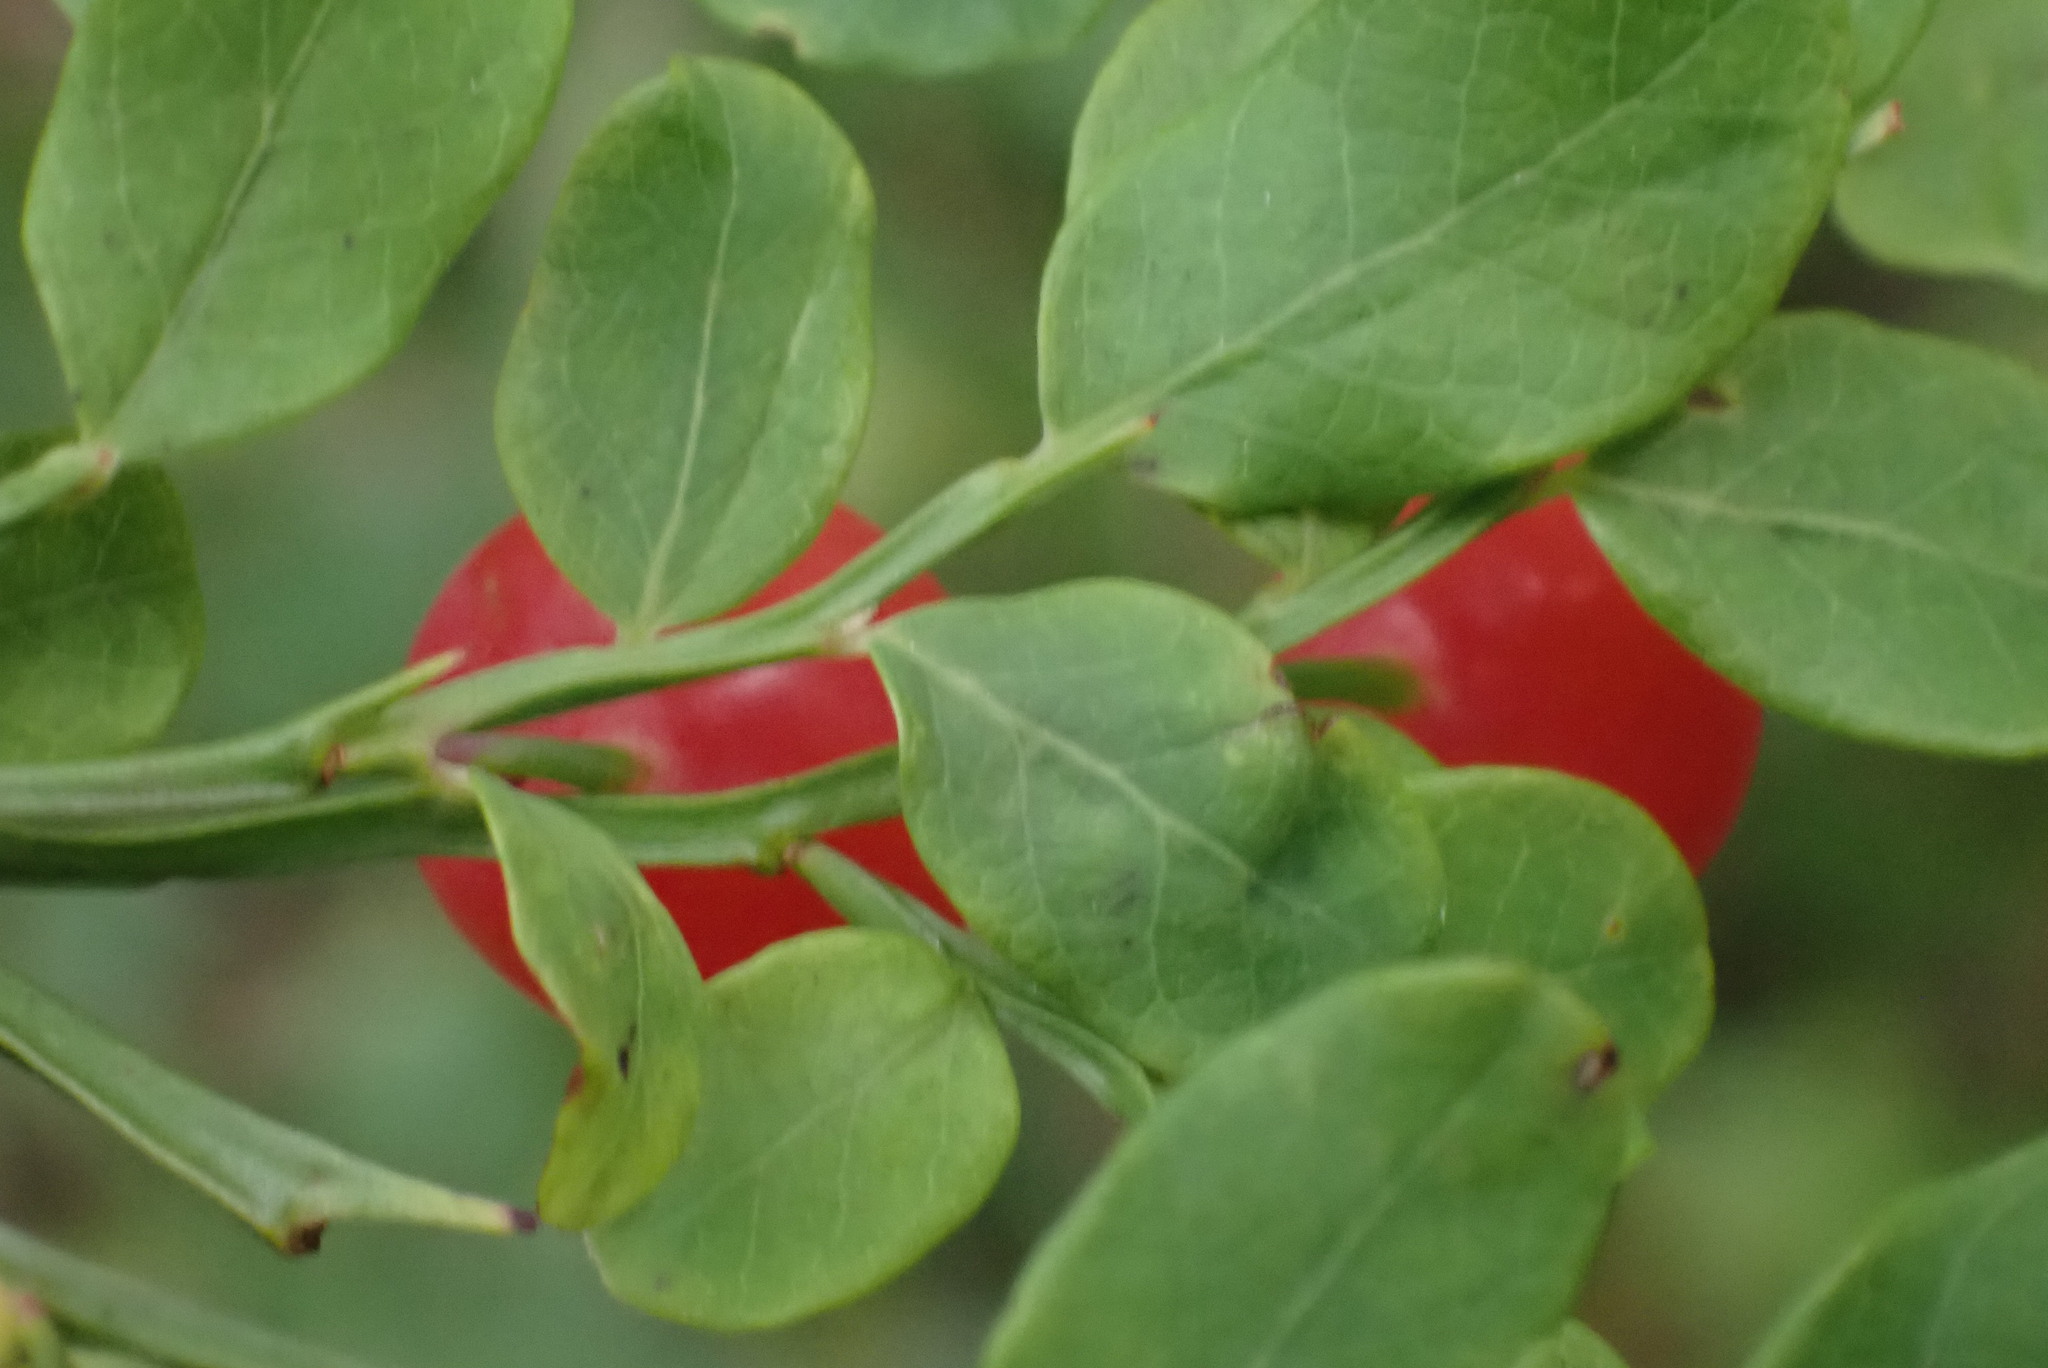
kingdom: Plantae
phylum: Tracheophyta
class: Magnoliopsida
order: Ericales
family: Ericaceae
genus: Vaccinium
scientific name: Vaccinium parvifolium
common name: Red-huckleberry
